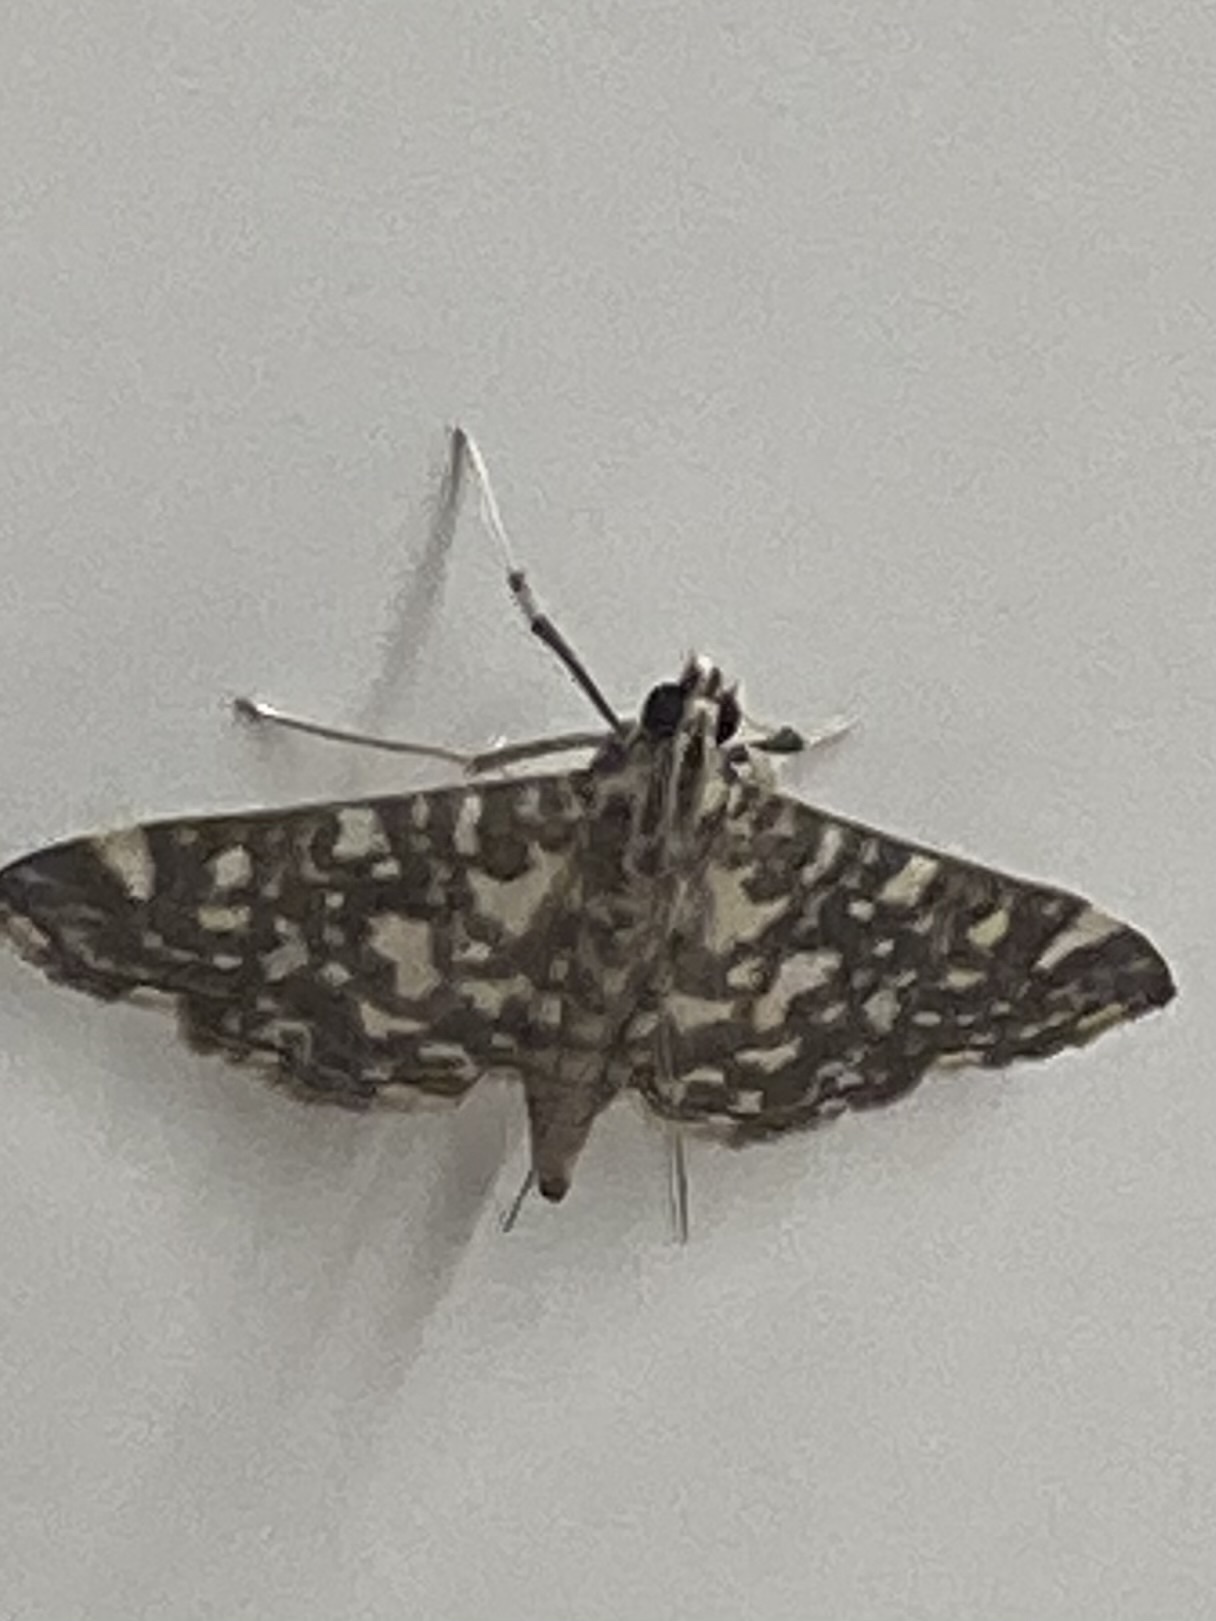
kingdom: Animalia
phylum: Arthropoda
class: Insecta
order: Lepidoptera
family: Crambidae
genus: Glyphodes
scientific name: Glyphodes onychinalis
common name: Swan plant moth
